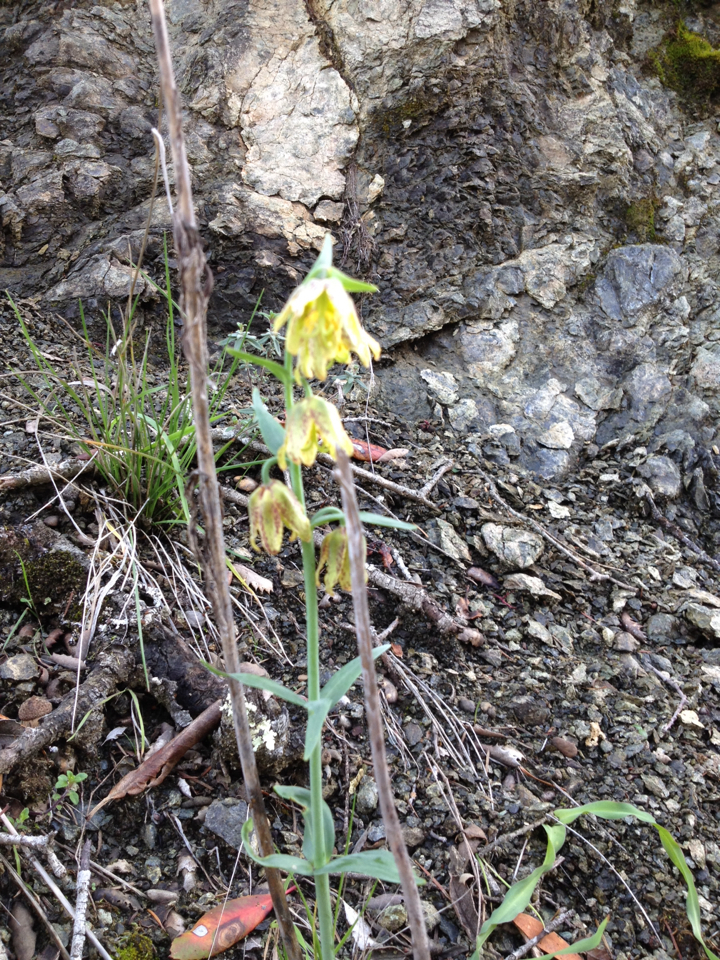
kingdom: Plantae
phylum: Tracheophyta
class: Liliopsida
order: Liliales
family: Liliaceae
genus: Fritillaria
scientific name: Fritillaria affinis
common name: Ojai fritillary
